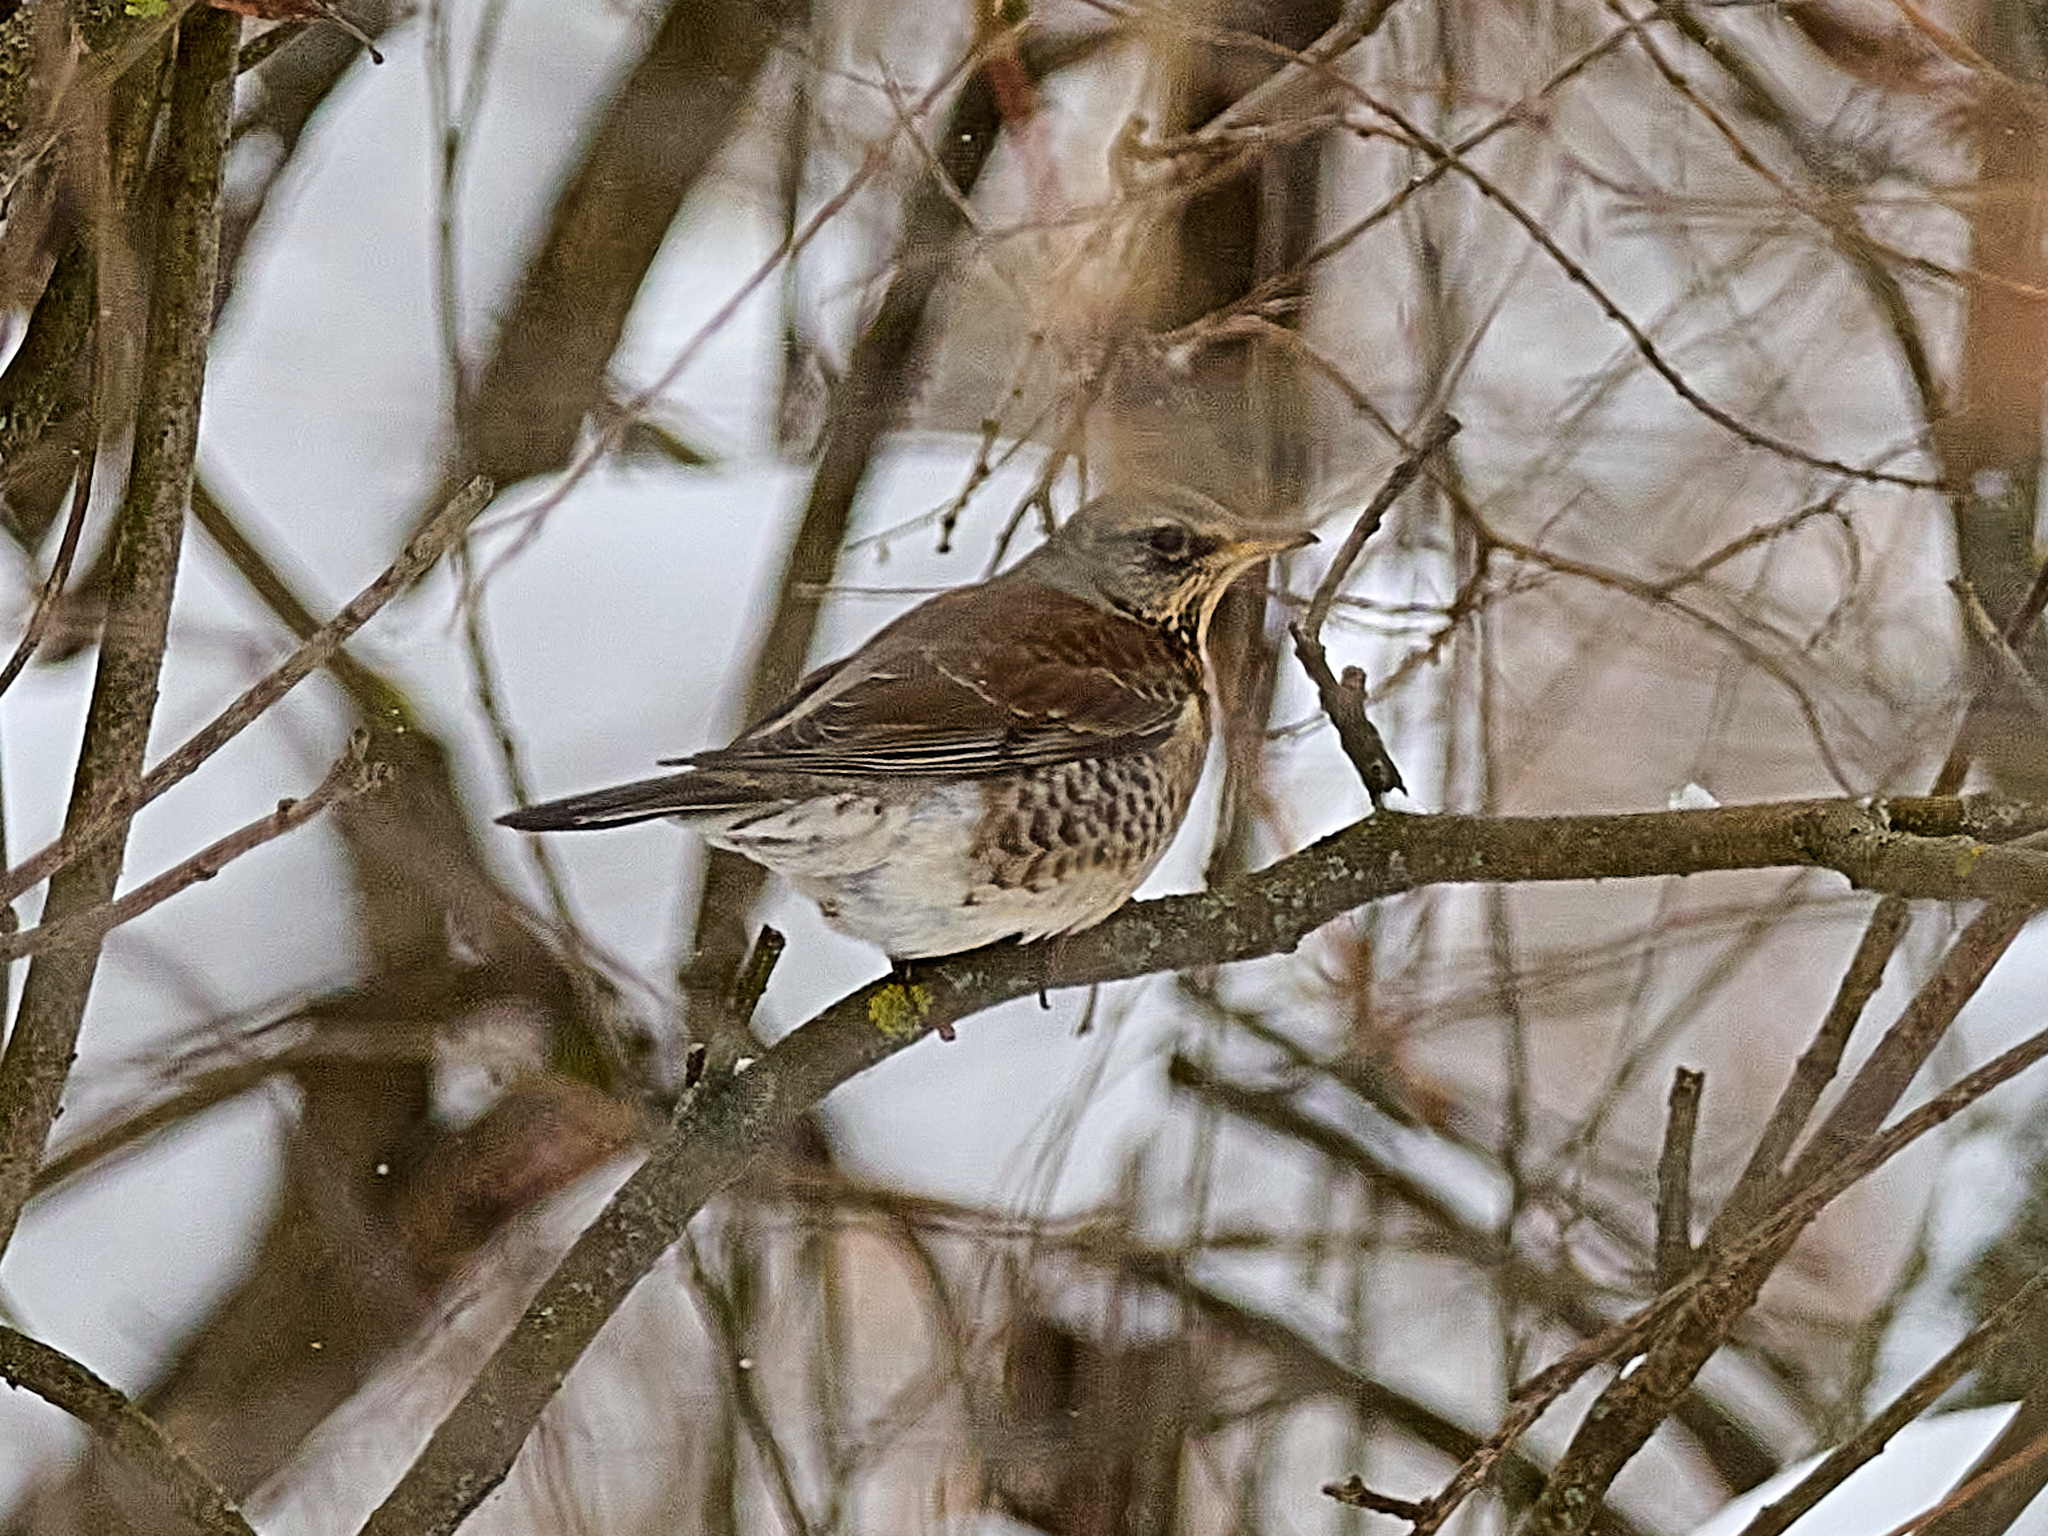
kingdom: Animalia
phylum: Chordata
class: Aves
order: Passeriformes
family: Turdidae
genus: Turdus
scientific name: Turdus pilaris
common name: Fieldfare
